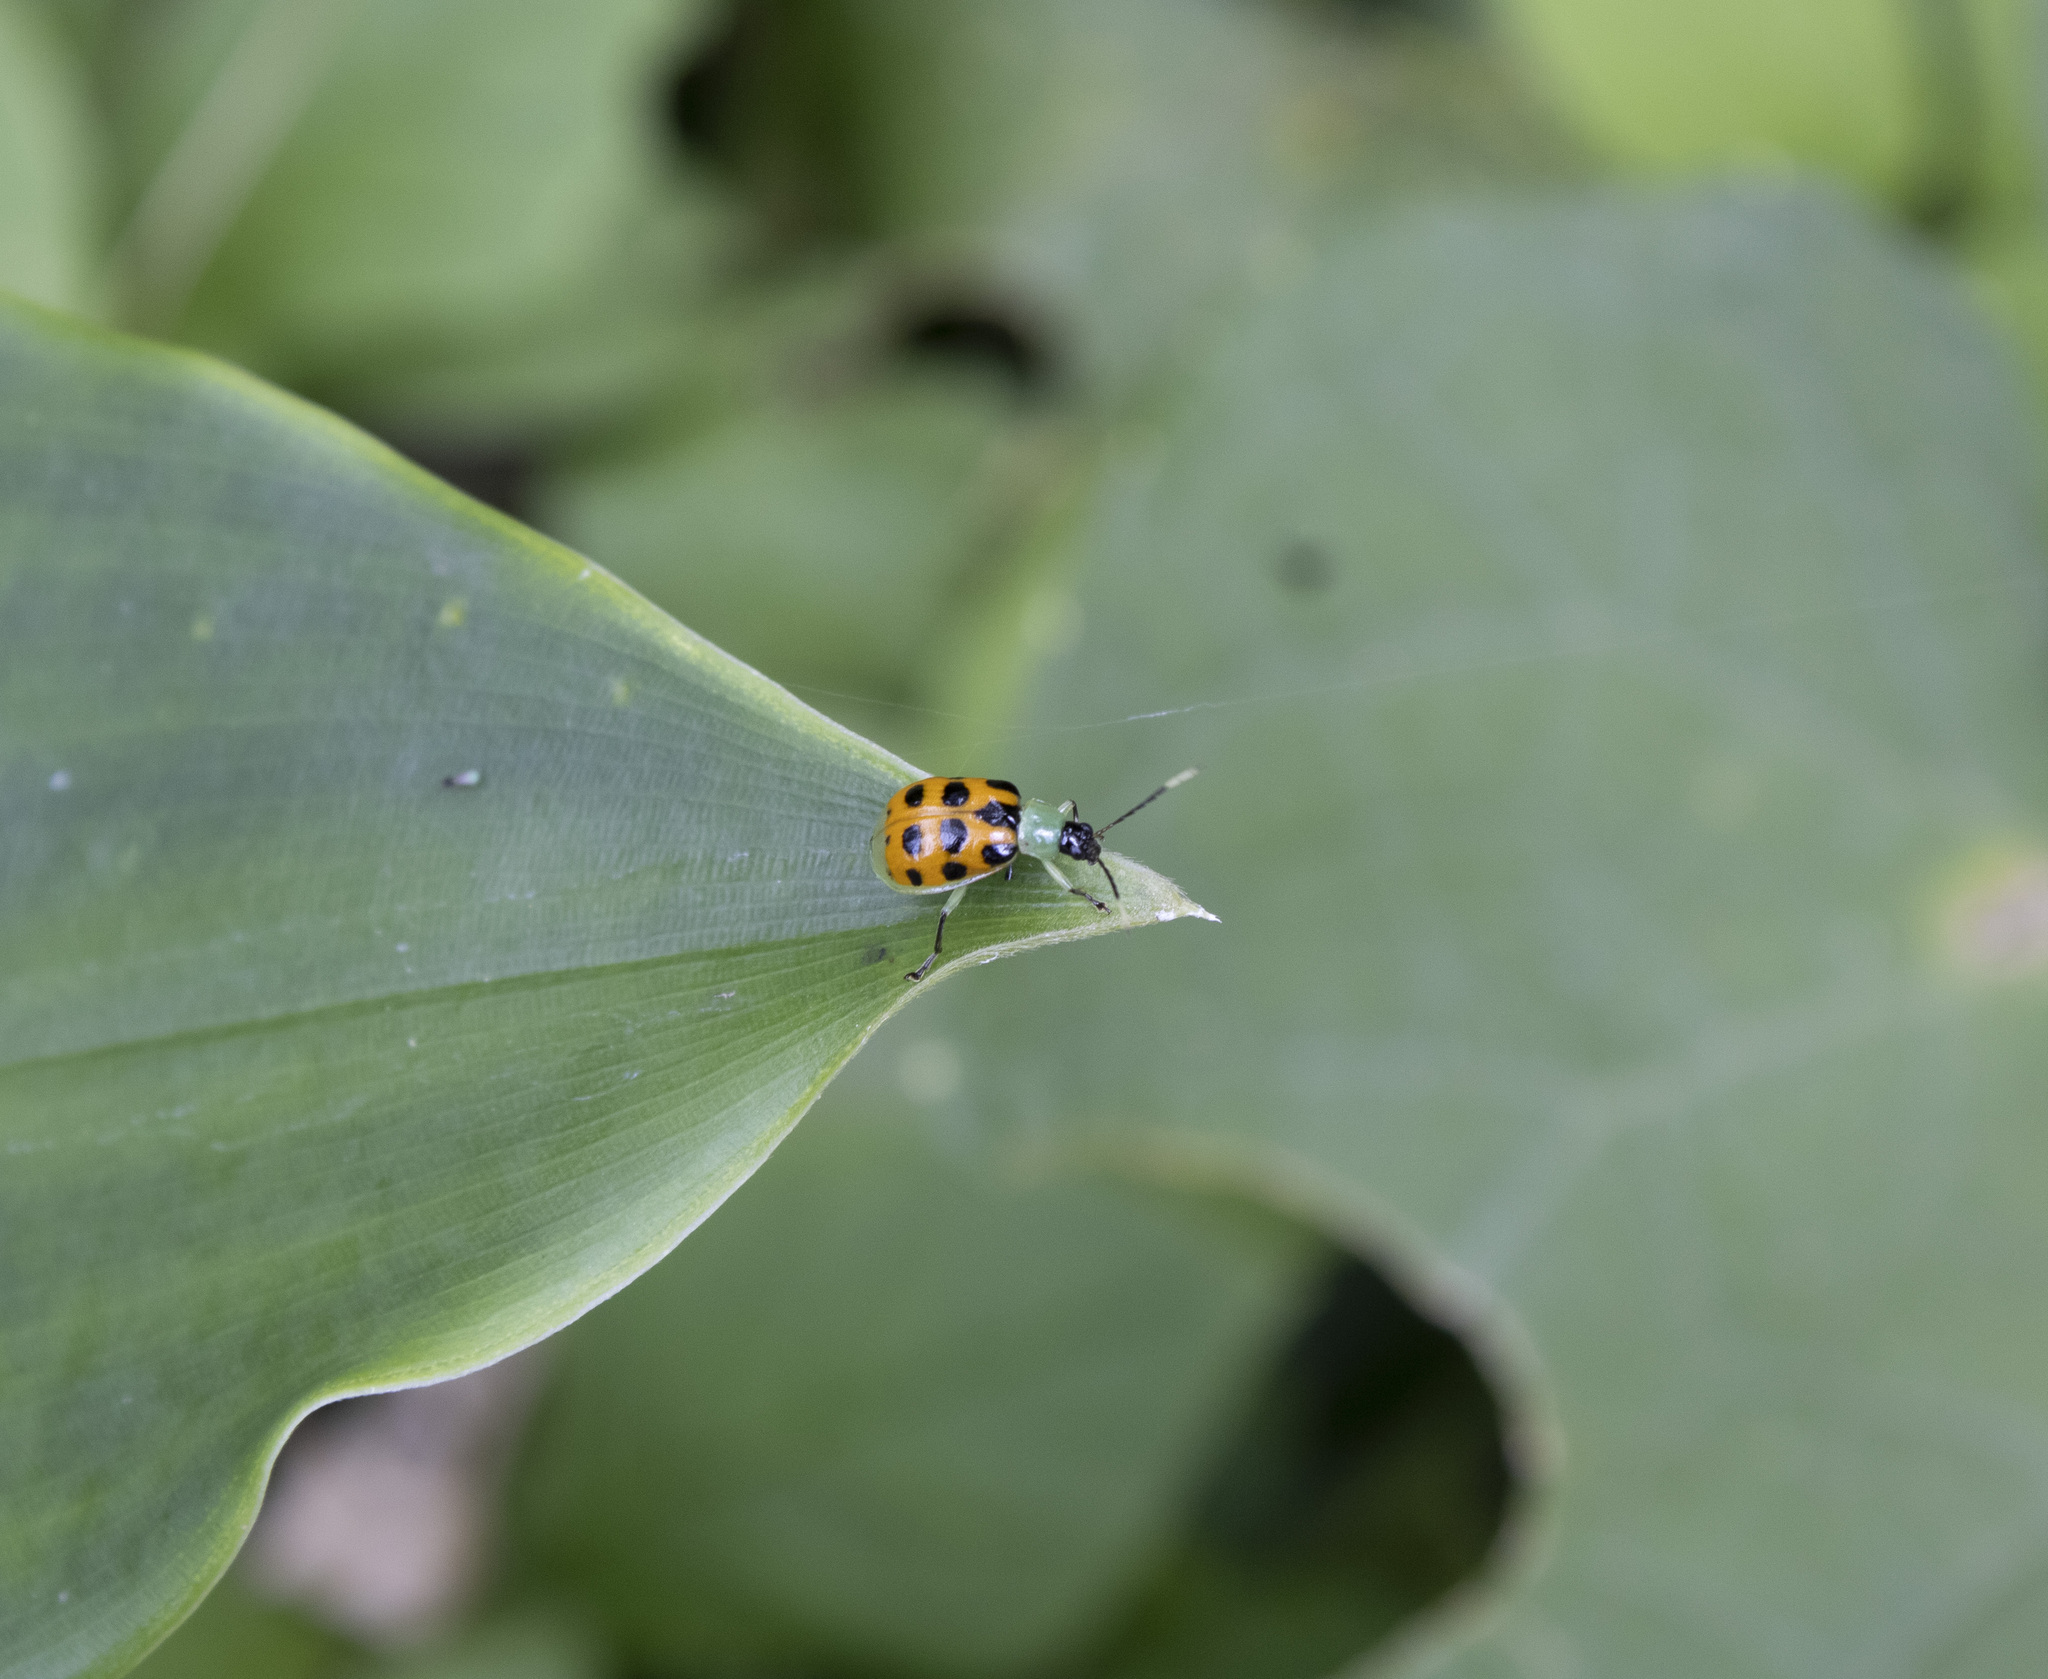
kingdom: Animalia
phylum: Arthropoda
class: Insecta
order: Coleoptera
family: Chrysomelidae
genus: Diabrotica
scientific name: Diabrotica limitata
